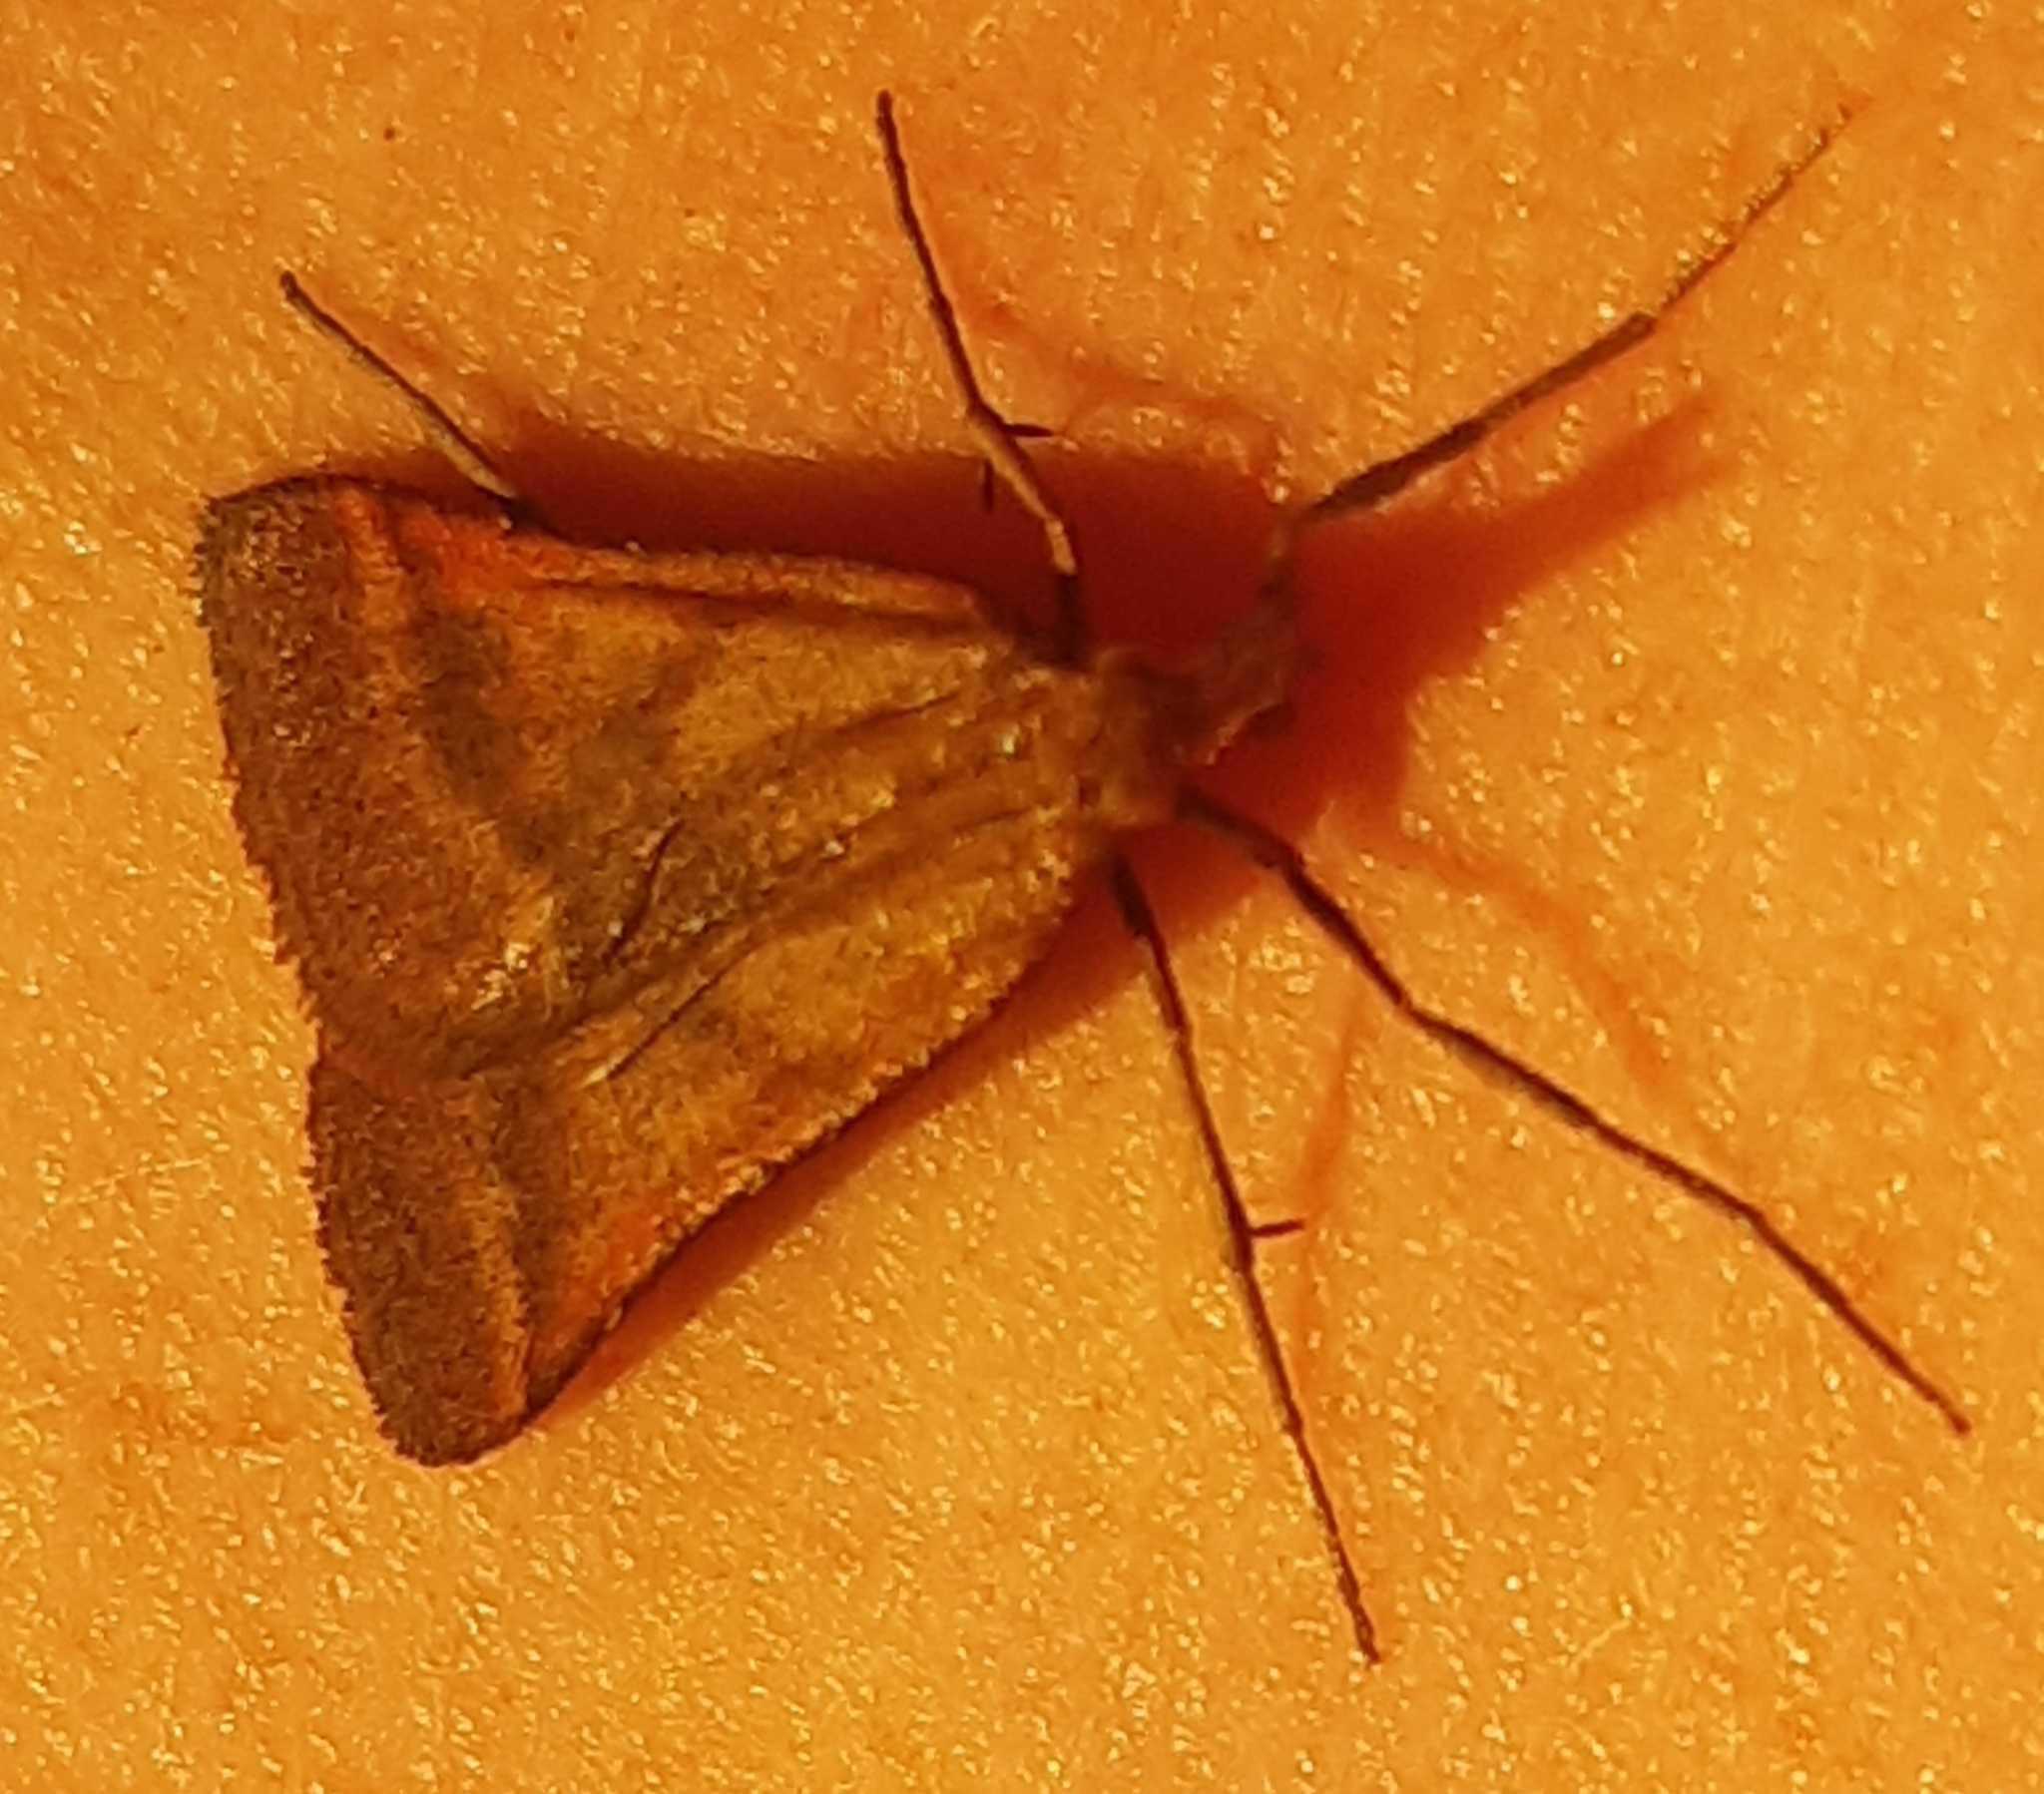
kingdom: Animalia
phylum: Arthropoda
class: Insecta
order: Lepidoptera
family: Pyralidae
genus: Synaphe
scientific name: Synaphe punctalis
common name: Long-legged tabby
